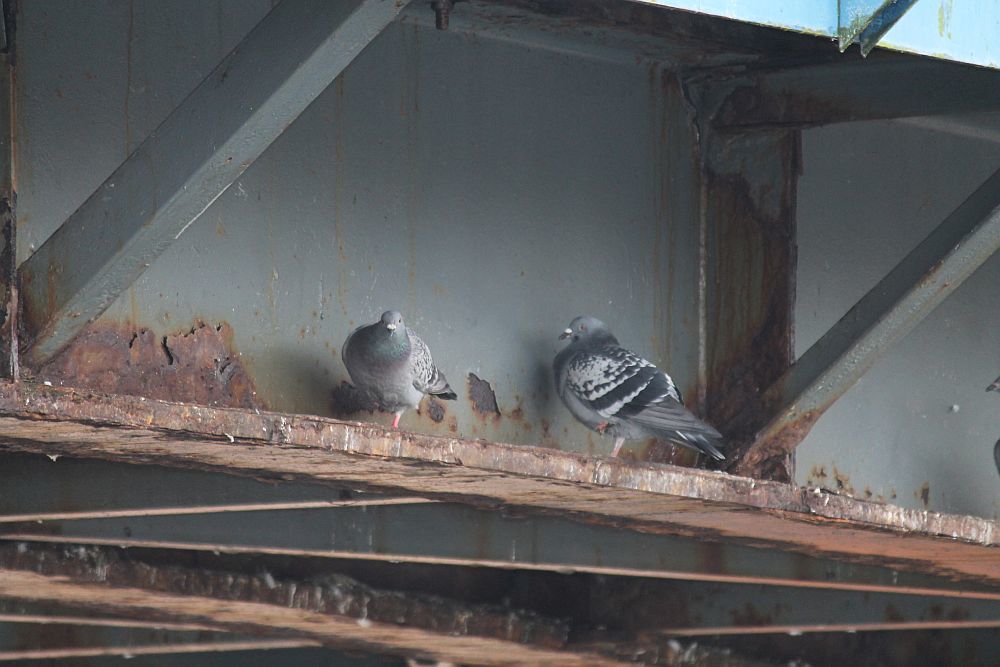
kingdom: Animalia
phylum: Chordata
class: Aves
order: Columbiformes
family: Columbidae
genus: Columba
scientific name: Columba livia
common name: Rock pigeon
